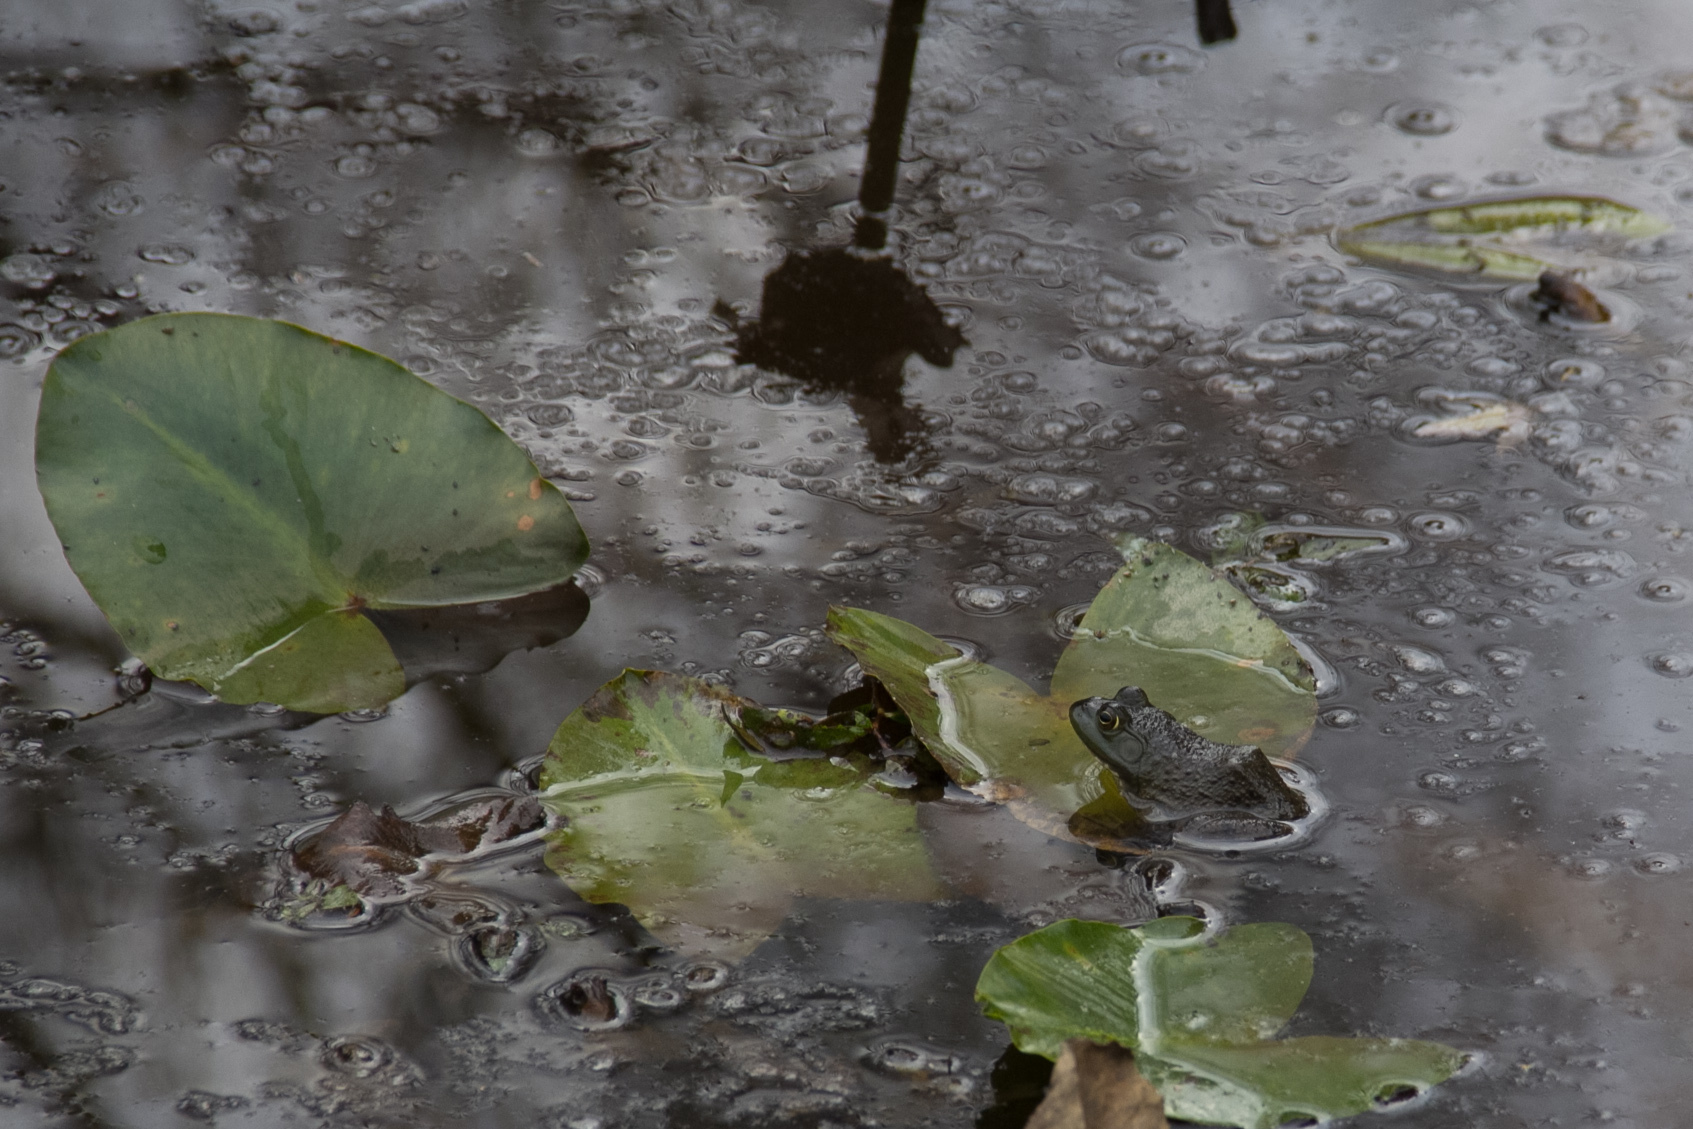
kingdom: Animalia
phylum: Chordata
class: Amphibia
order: Anura
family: Ranidae
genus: Lithobates
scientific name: Lithobates catesbeianus
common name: American bullfrog
